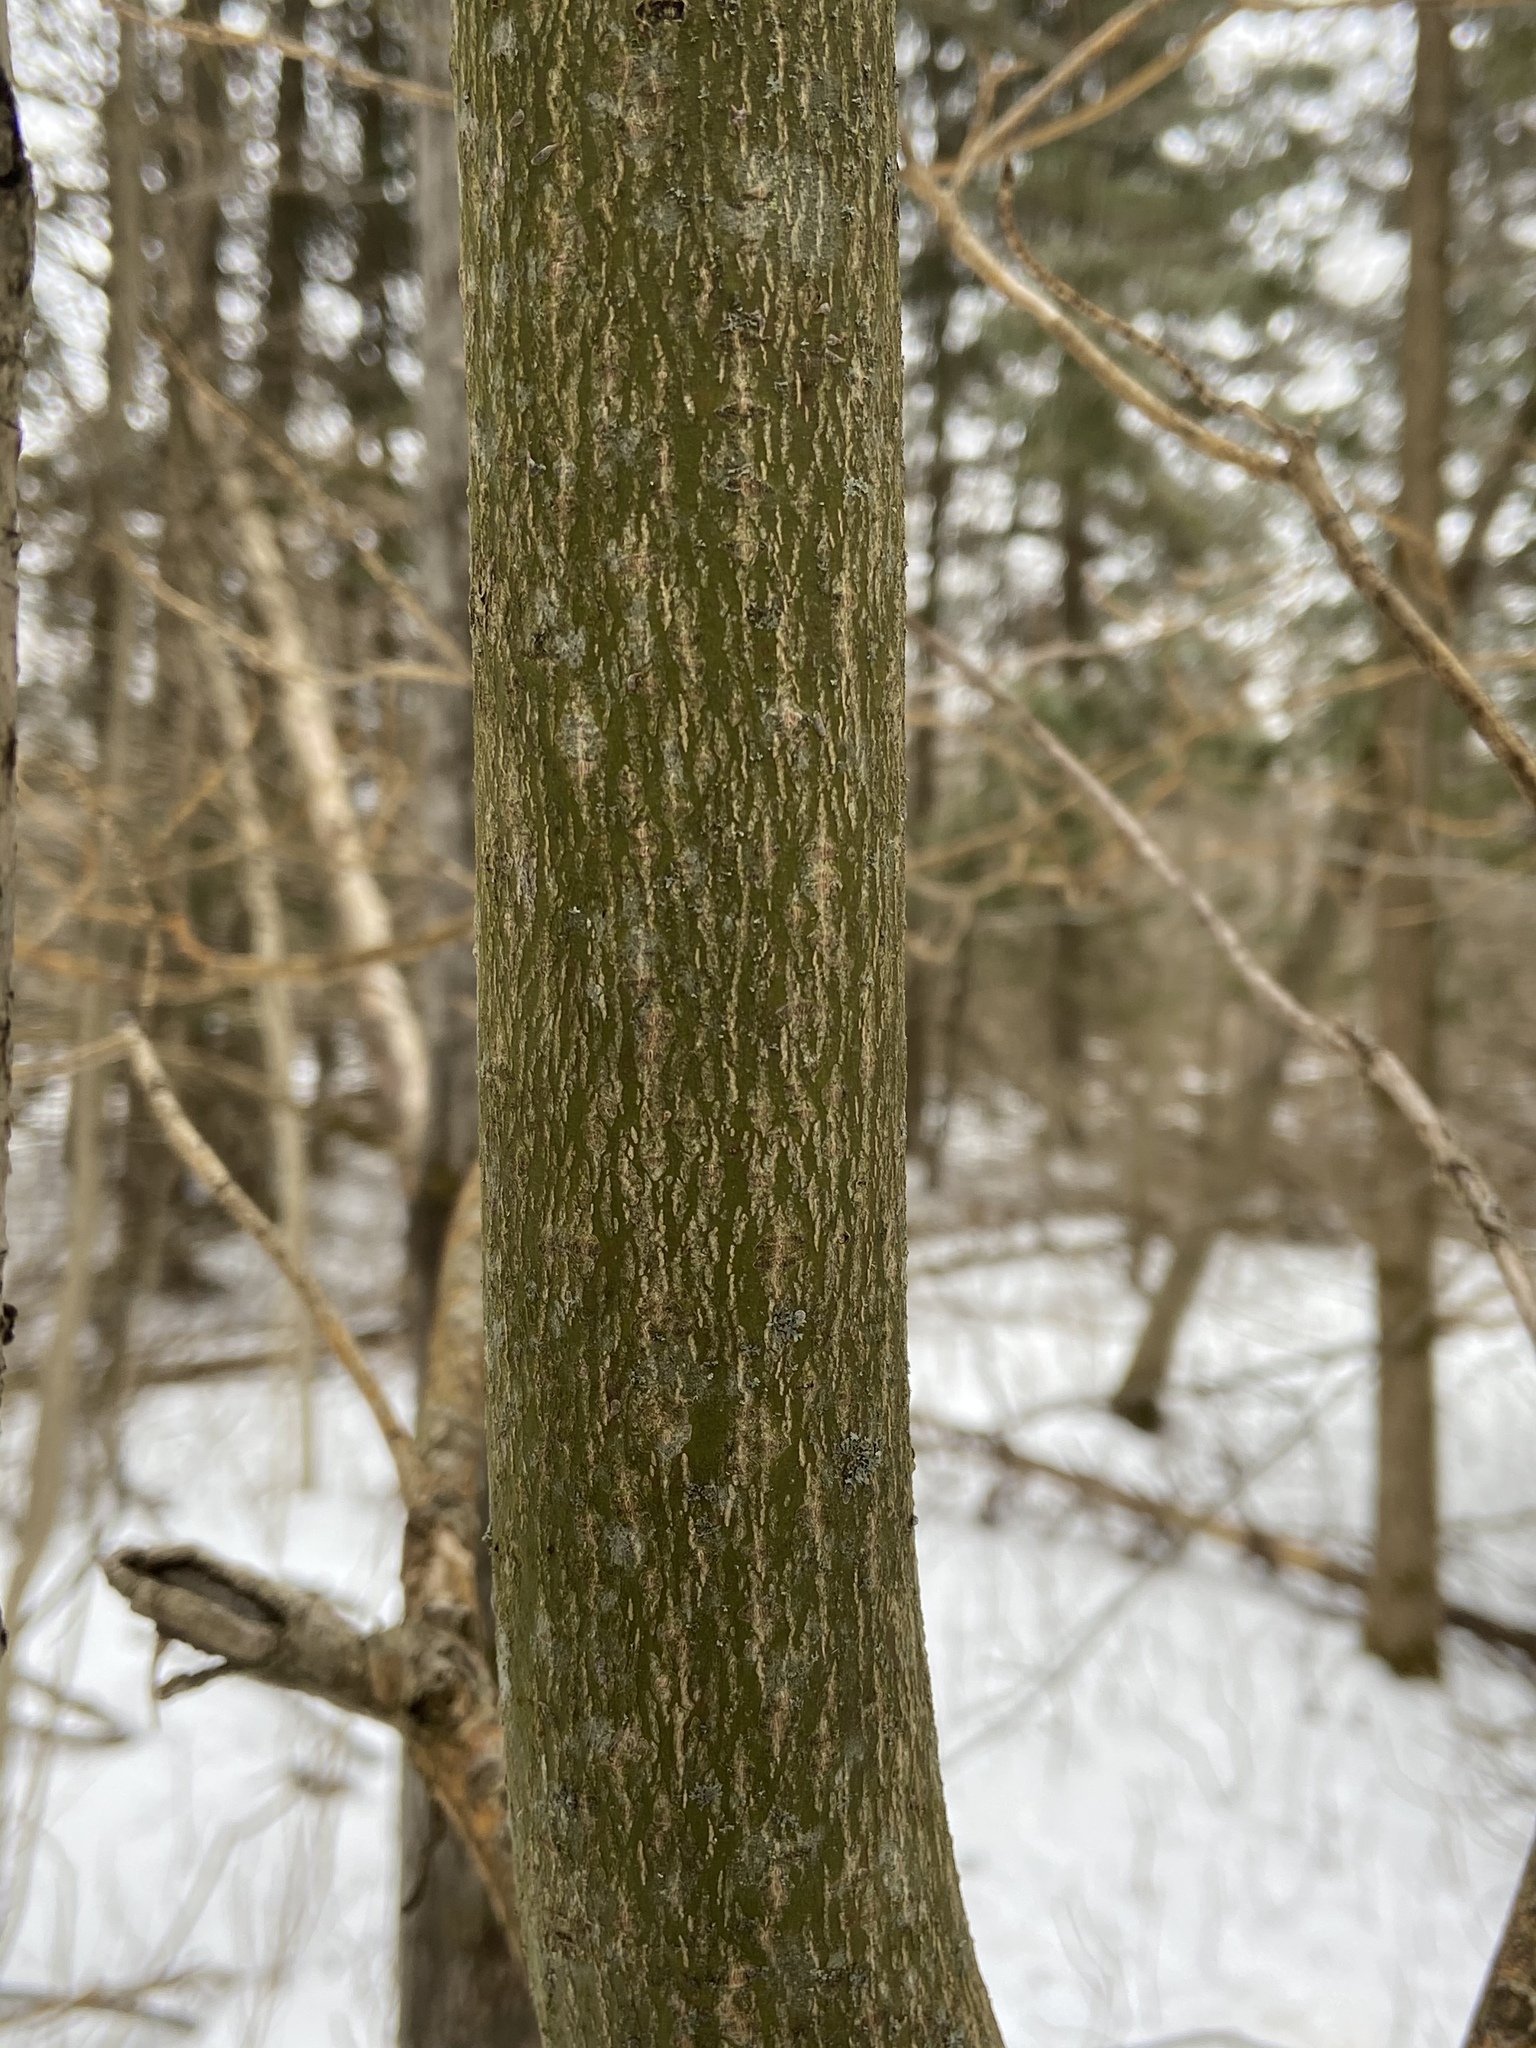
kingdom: Plantae
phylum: Tracheophyta
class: Magnoliopsida
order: Cornales
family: Cornaceae
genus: Cornus
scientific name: Cornus alternifolia
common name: Pagoda dogwood
